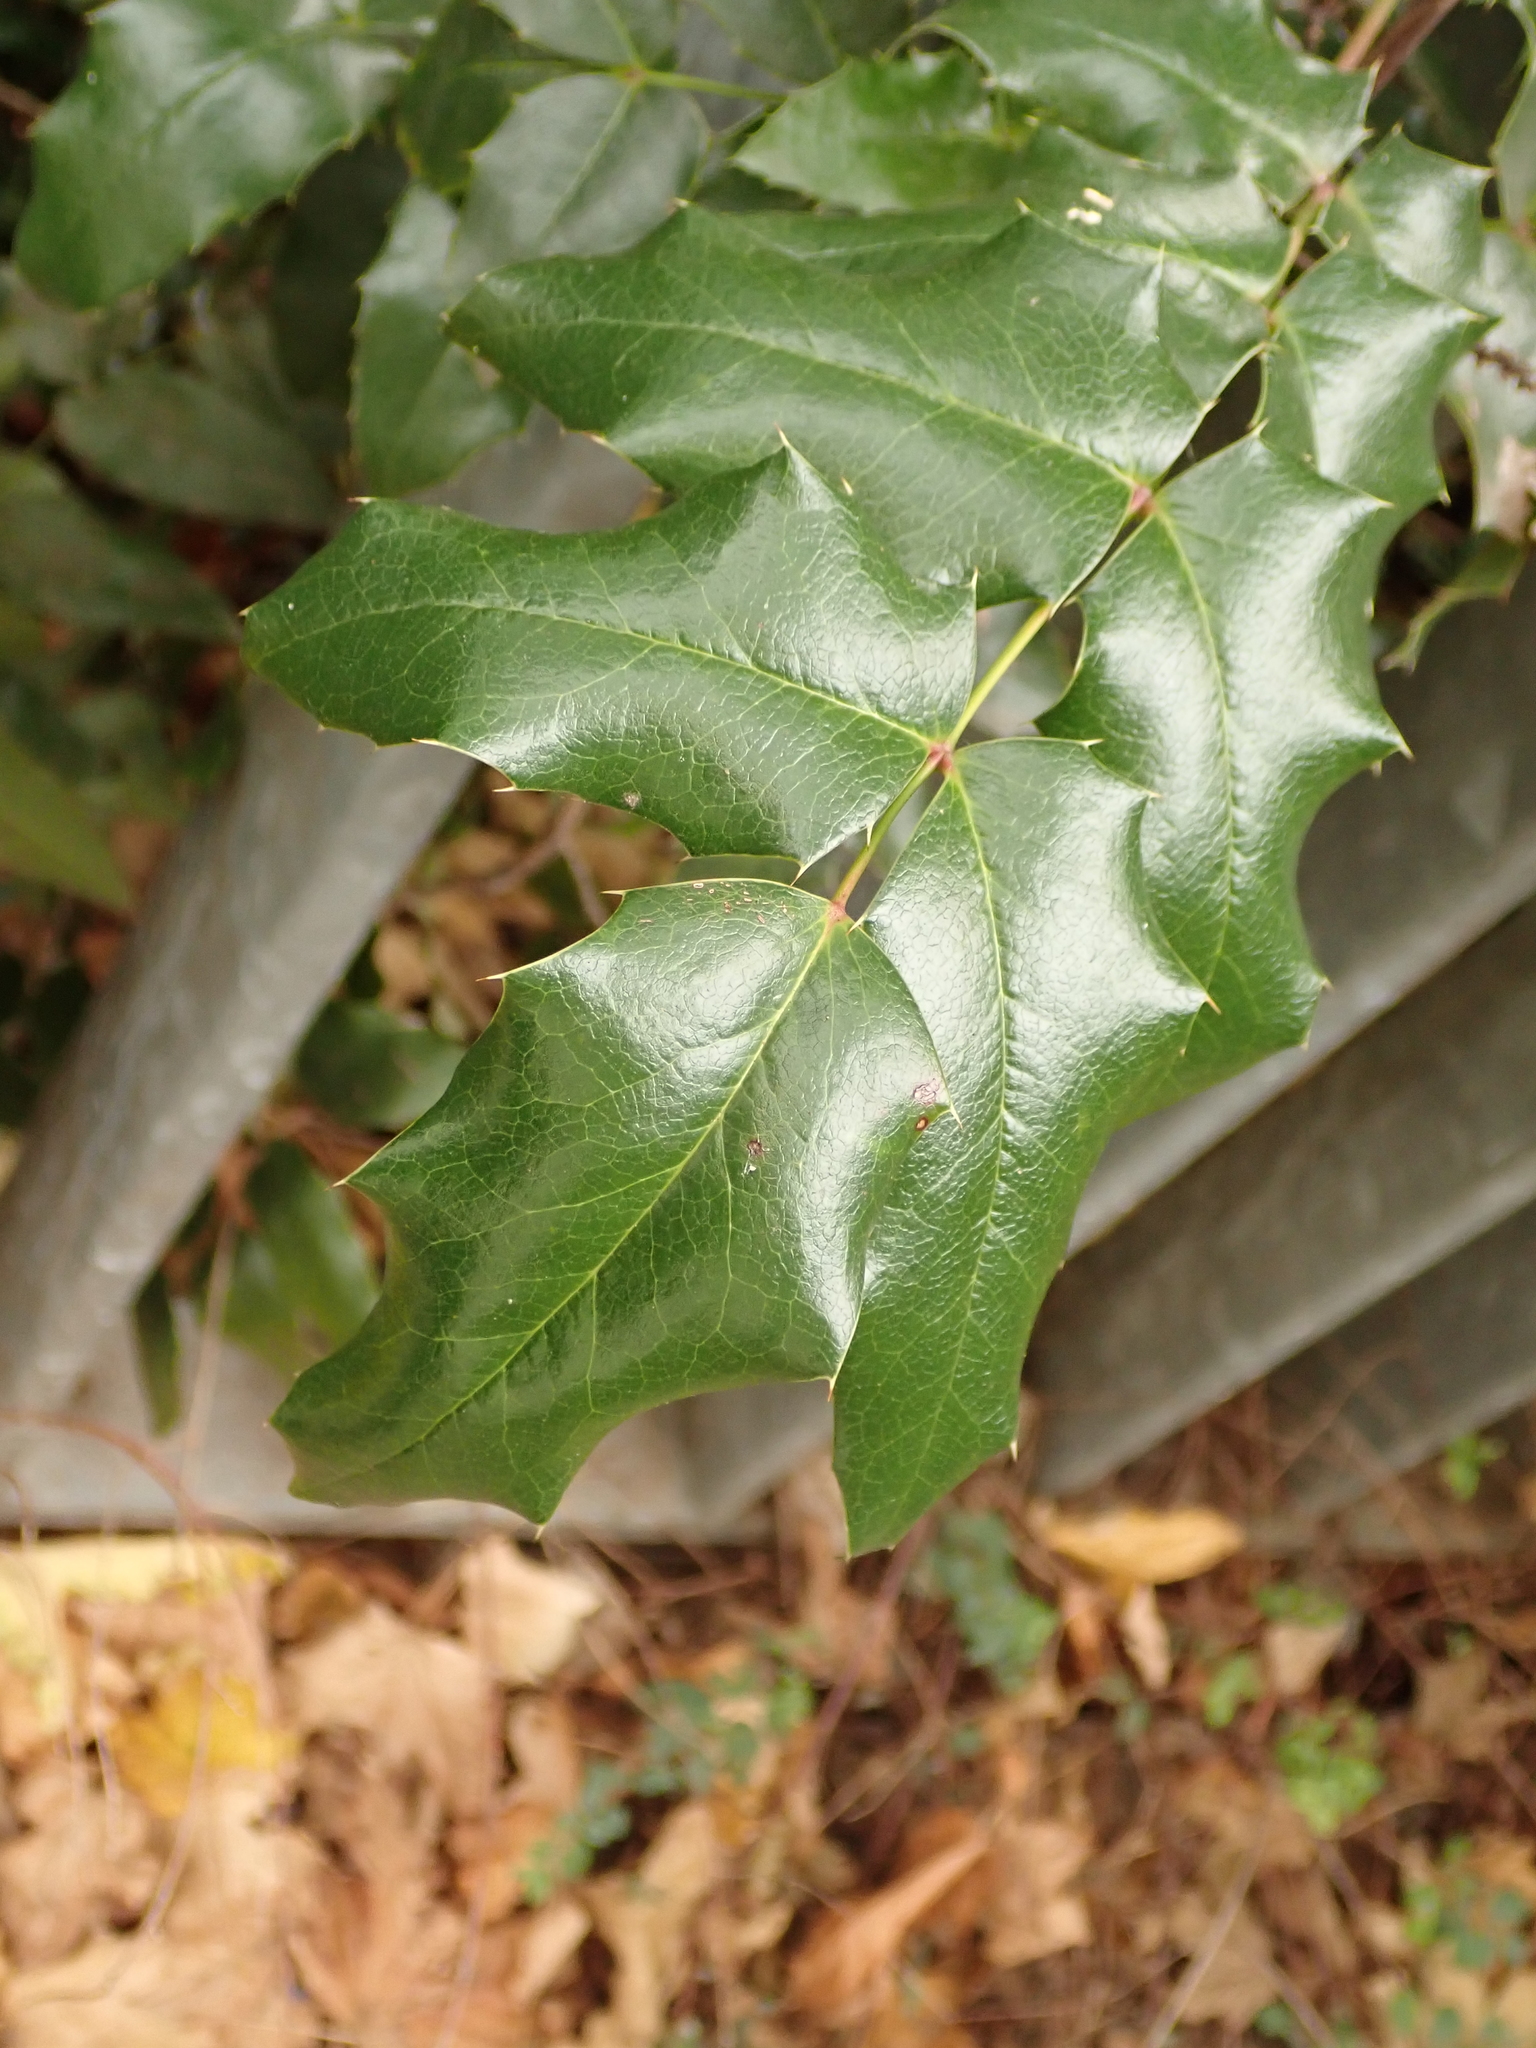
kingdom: Plantae
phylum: Tracheophyta
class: Magnoliopsida
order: Ranunculales
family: Berberidaceae
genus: Mahonia
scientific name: Mahonia aquifolium
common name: Oregon-grape
